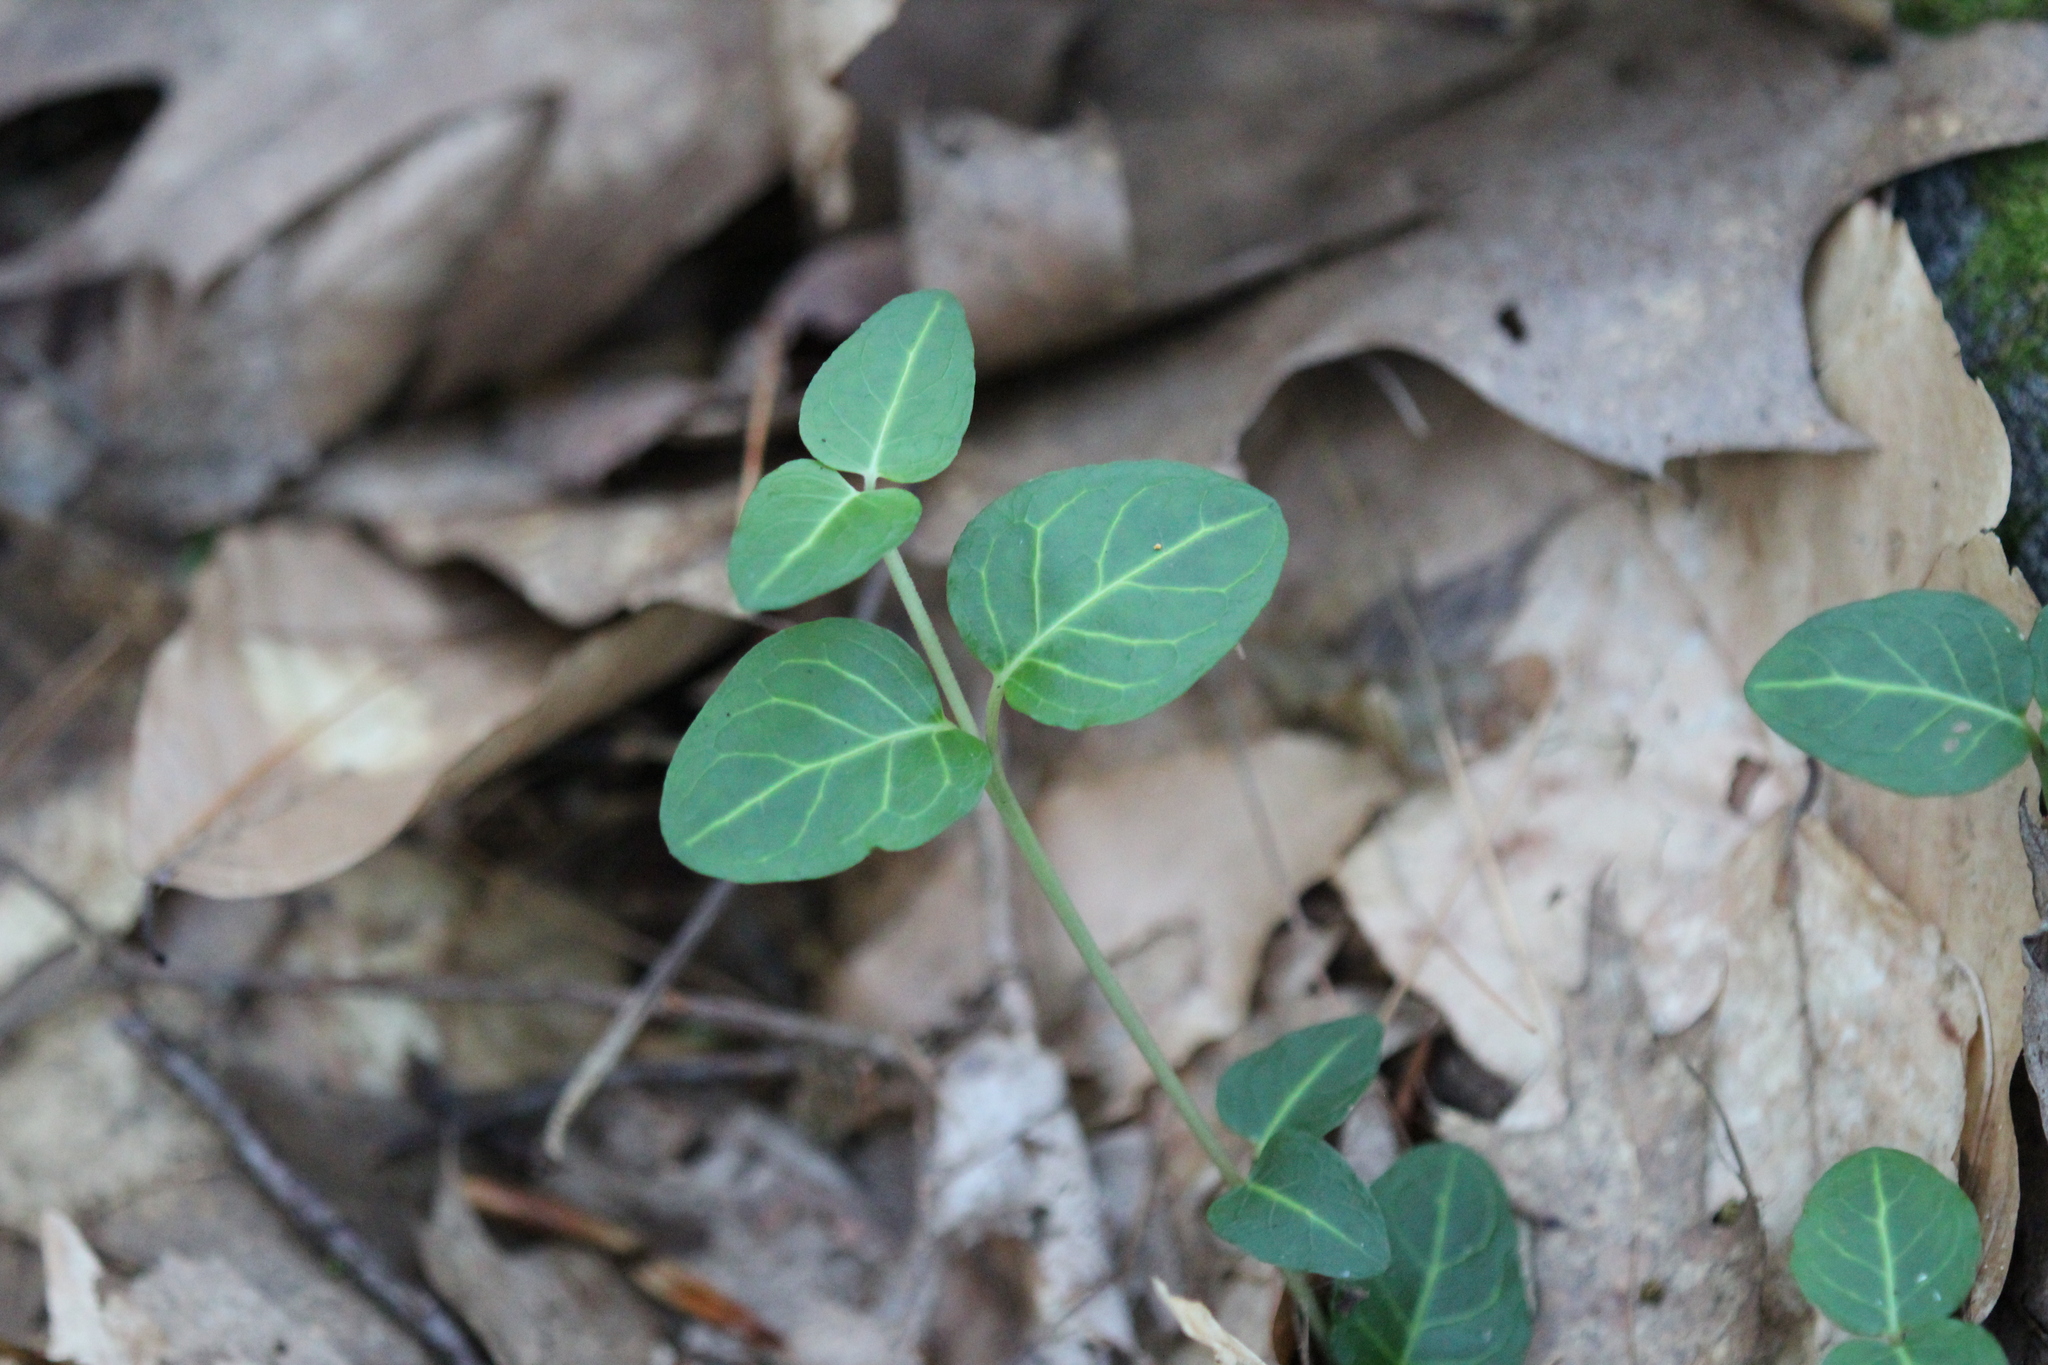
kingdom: Plantae
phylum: Tracheophyta
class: Magnoliopsida
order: Gentianales
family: Rubiaceae
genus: Mitchella
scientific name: Mitchella repens
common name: Partridge-berry
